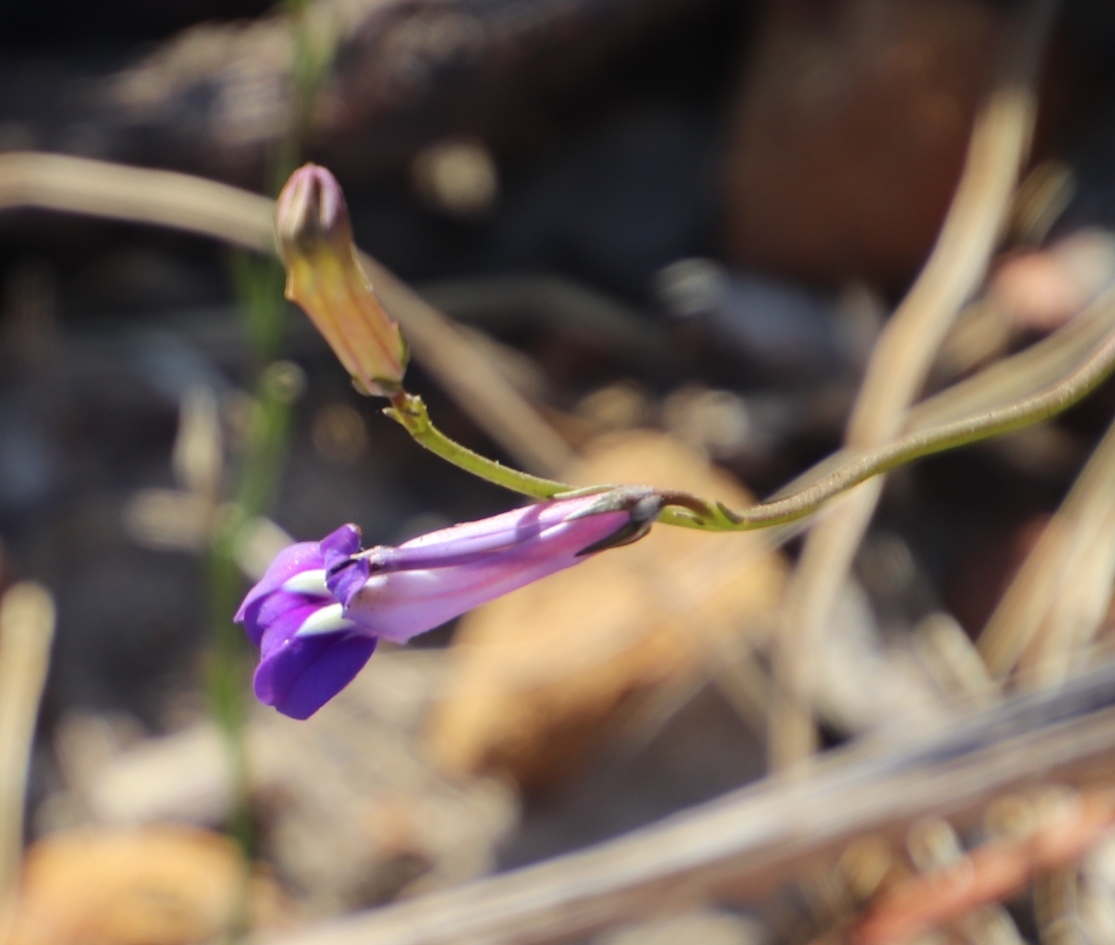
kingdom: Plantae
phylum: Tracheophyta
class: Magnoliopsida
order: Asterales
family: Campanulaceae
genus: Lobelia
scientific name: Lobelia coronopifolia
